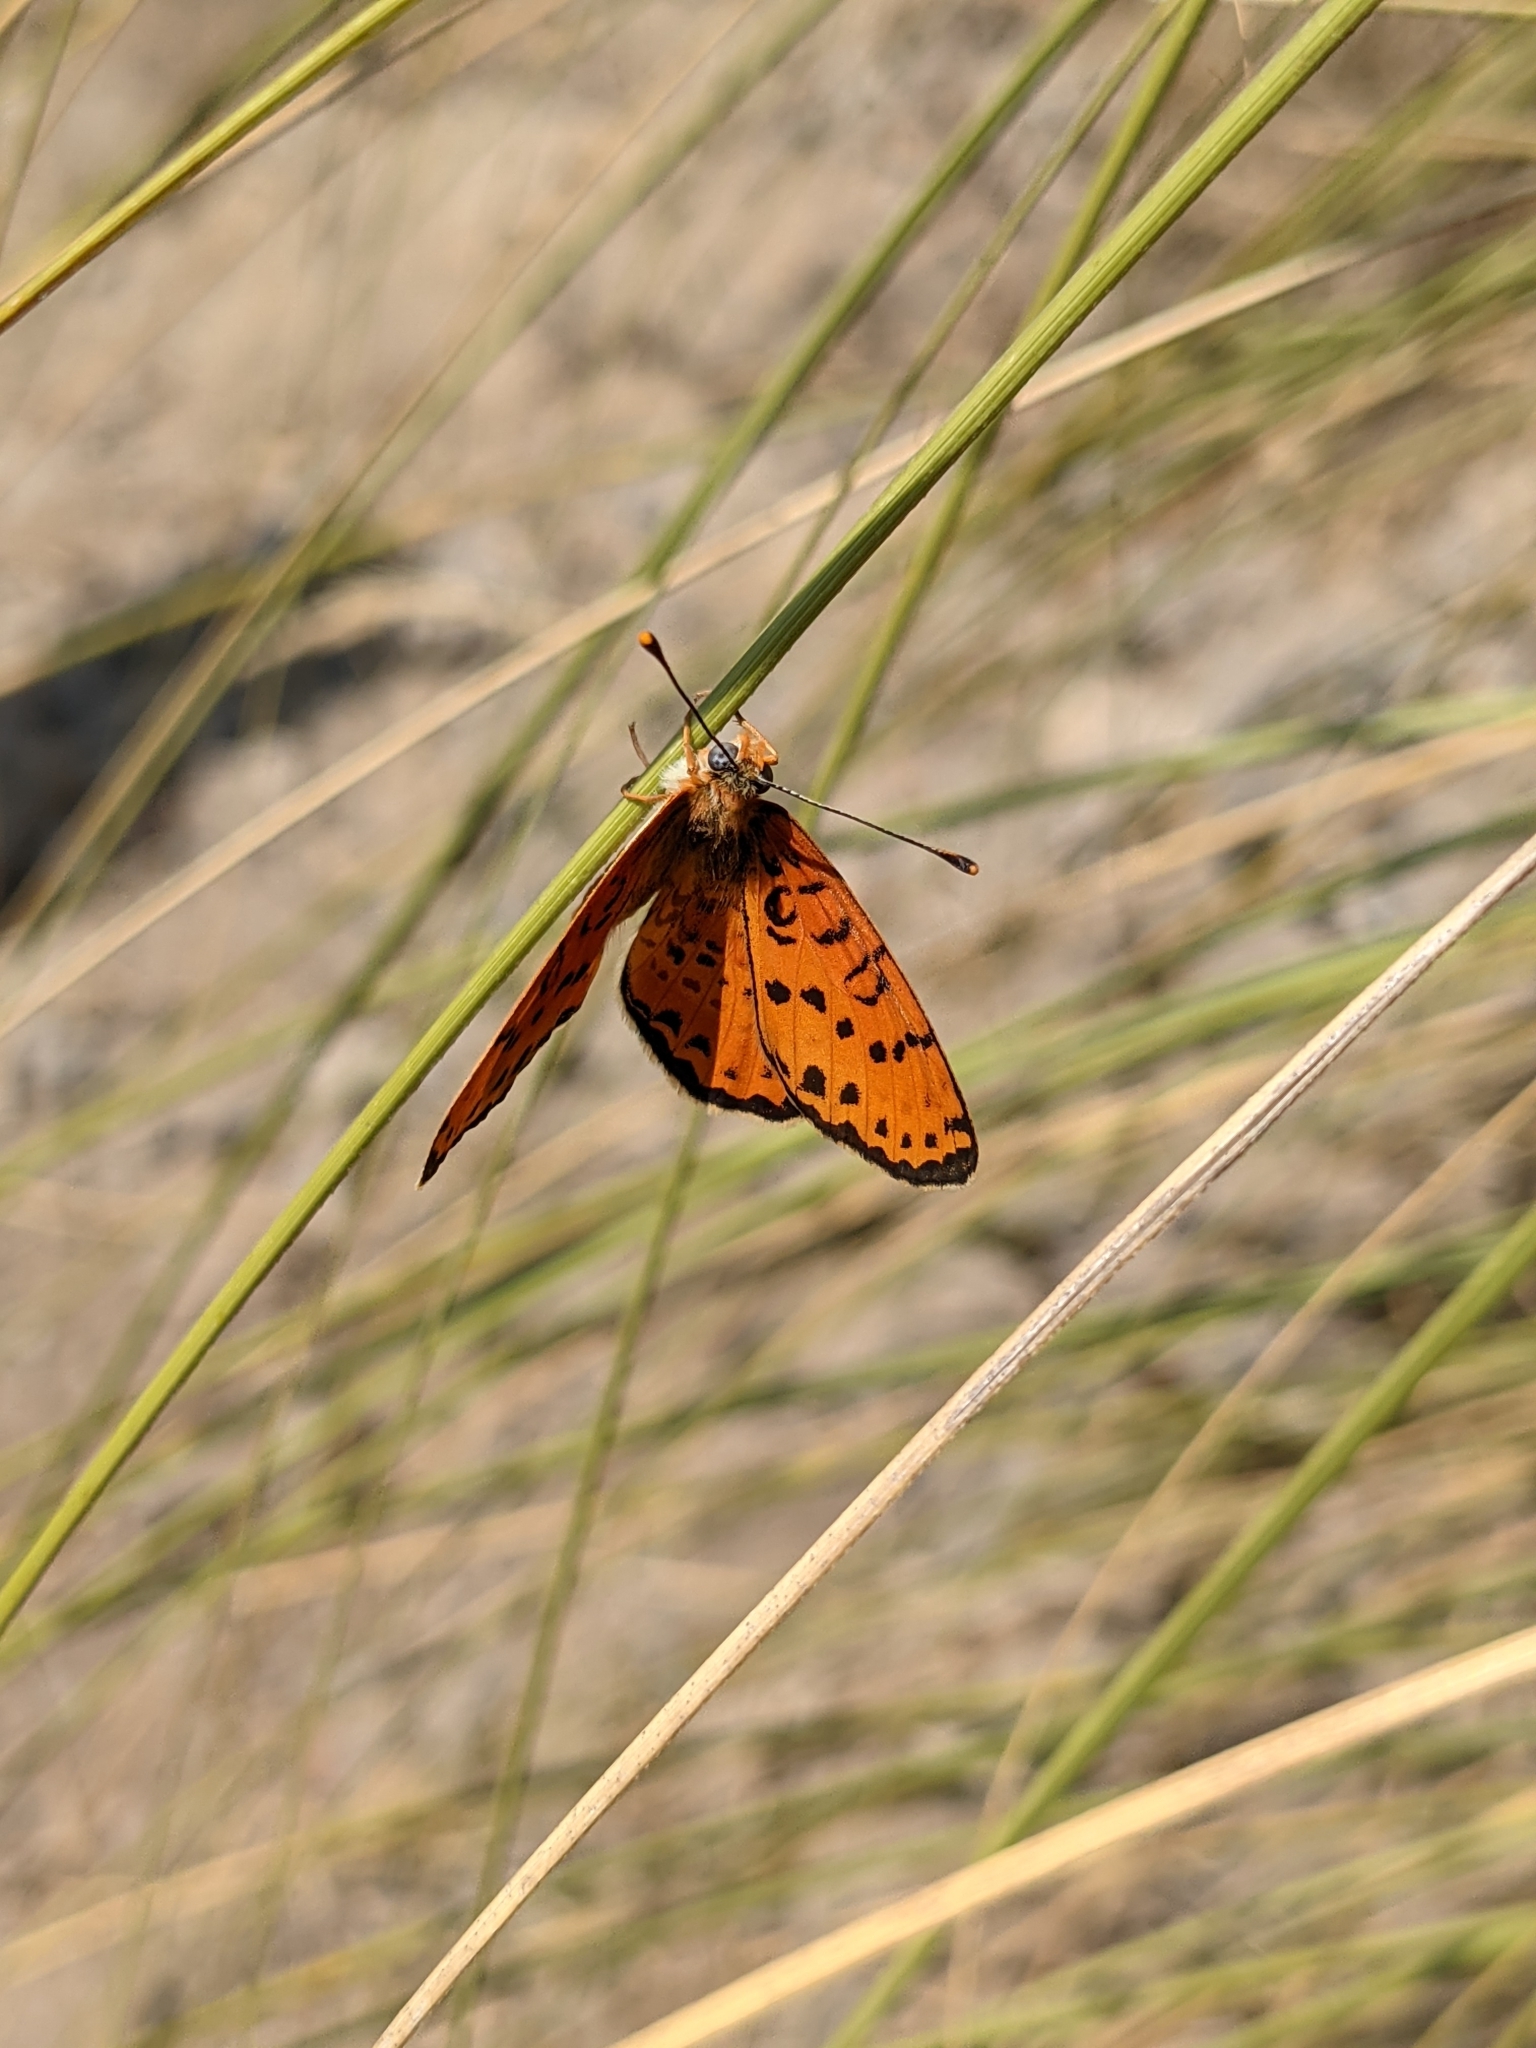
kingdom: Animalia
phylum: Arthropoda
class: Insecta
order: Lepidoptera
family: Nymphalidae
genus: Melitaea
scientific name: Melitaea didyma
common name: Spotted fritillary
